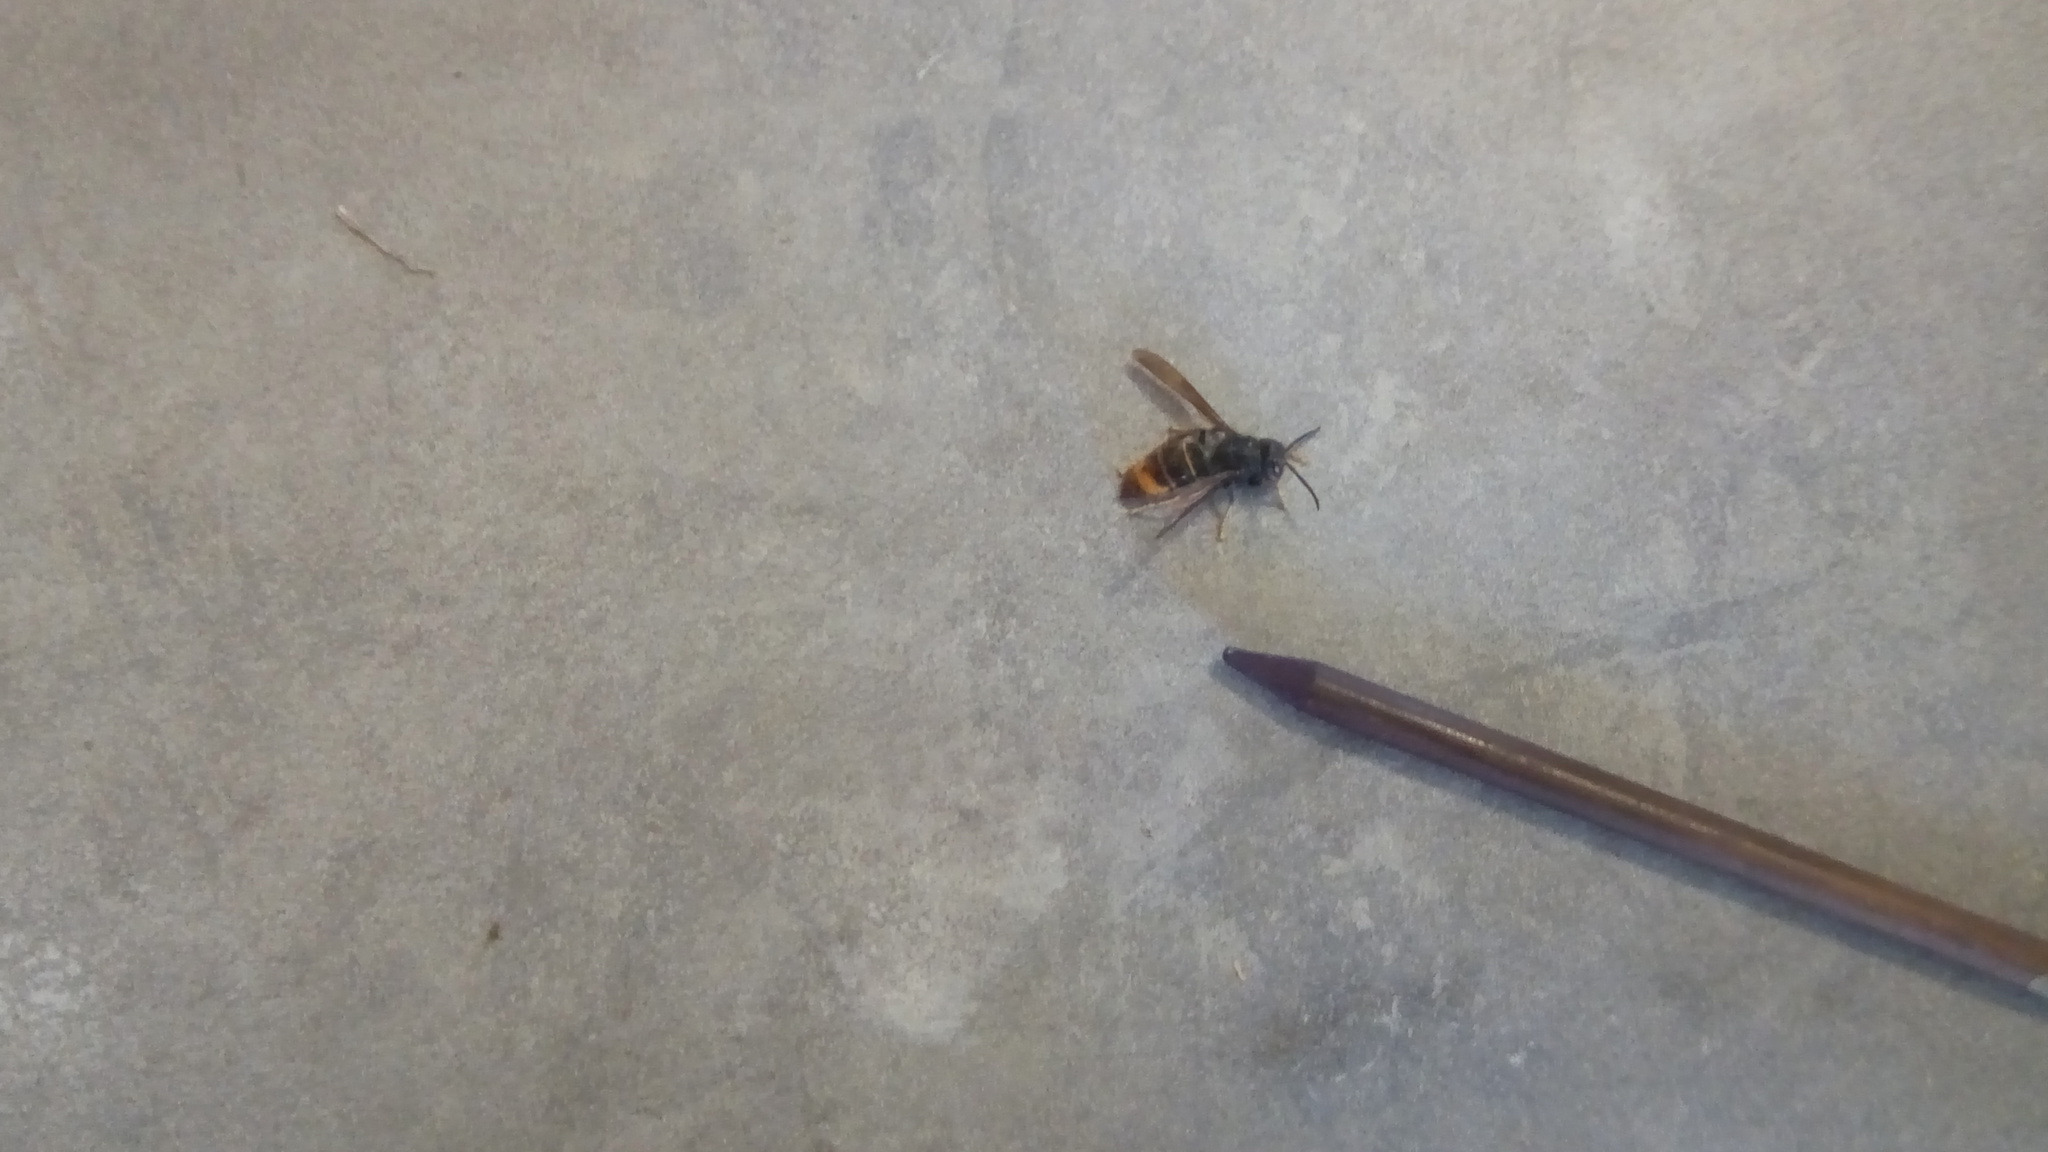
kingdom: Animalia
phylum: Arthropoda
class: Insecta
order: Hymenoptera
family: Vespidae
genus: Vespa
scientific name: Vespa velutina
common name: Asian hornet
